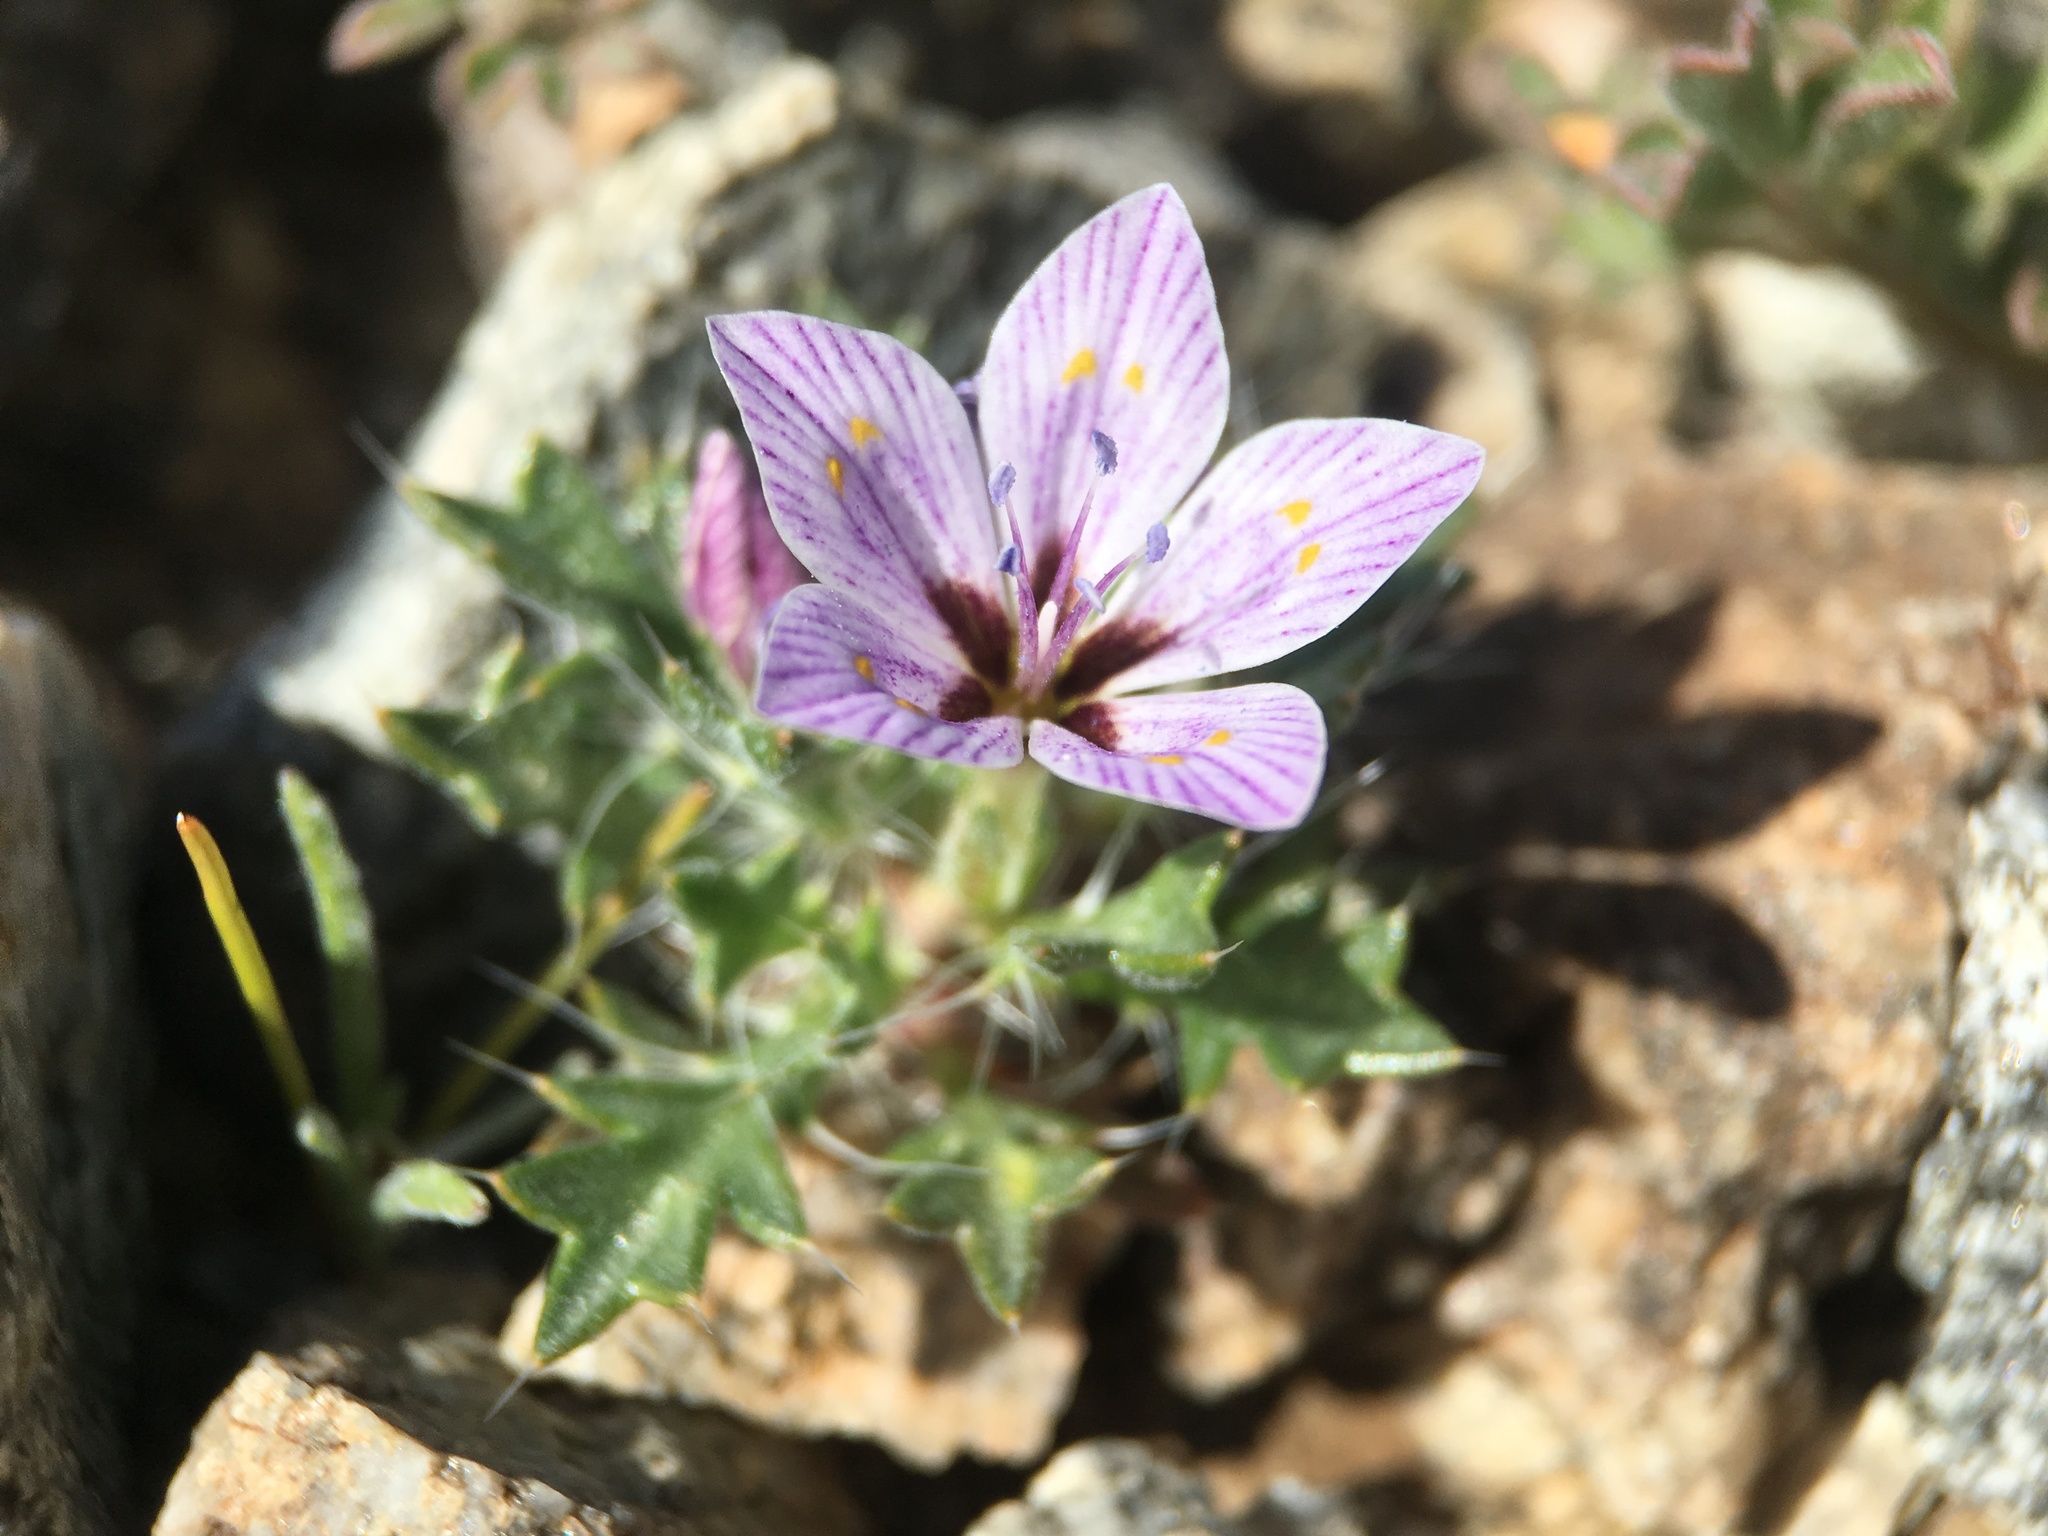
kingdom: Plantae
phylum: Tracheophyta
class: Magnoliopsida
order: Ericales
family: Polemoniaceae
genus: Langloisia
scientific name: Langloisia setosissima
